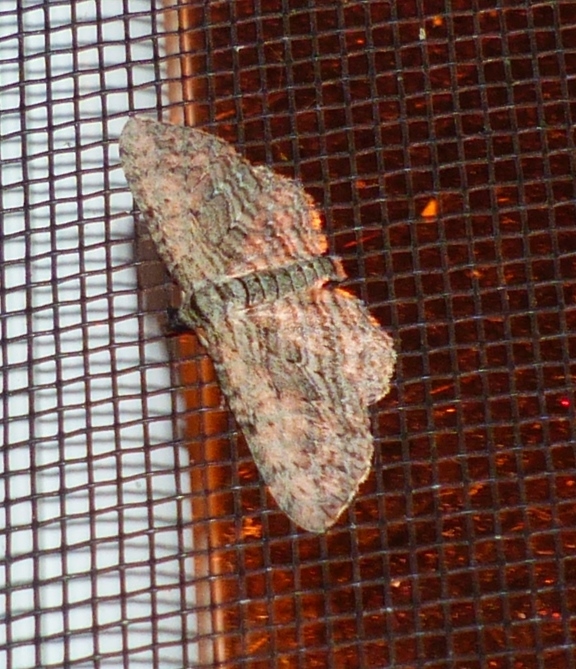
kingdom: Animalia
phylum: Arthropoda
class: Insecta
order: Lepidoptera
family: Geometridae
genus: Horisme
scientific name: Horisme intestinata
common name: Brown bark carpet
